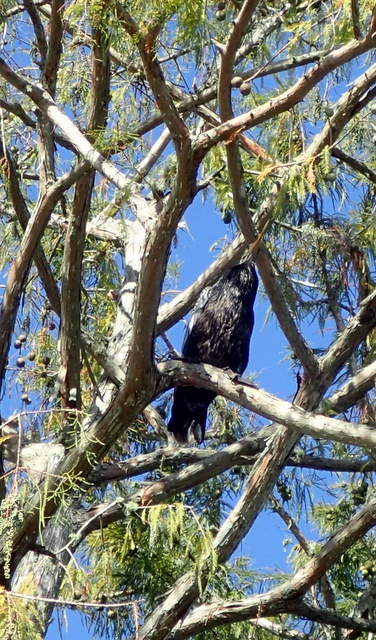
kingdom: Animalia
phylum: Chordata
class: Aves
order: Suliformes
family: Phalacrocoracidae
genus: Phalacrocorax
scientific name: Phalacrocorax auritus
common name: Double-crested cormorant
